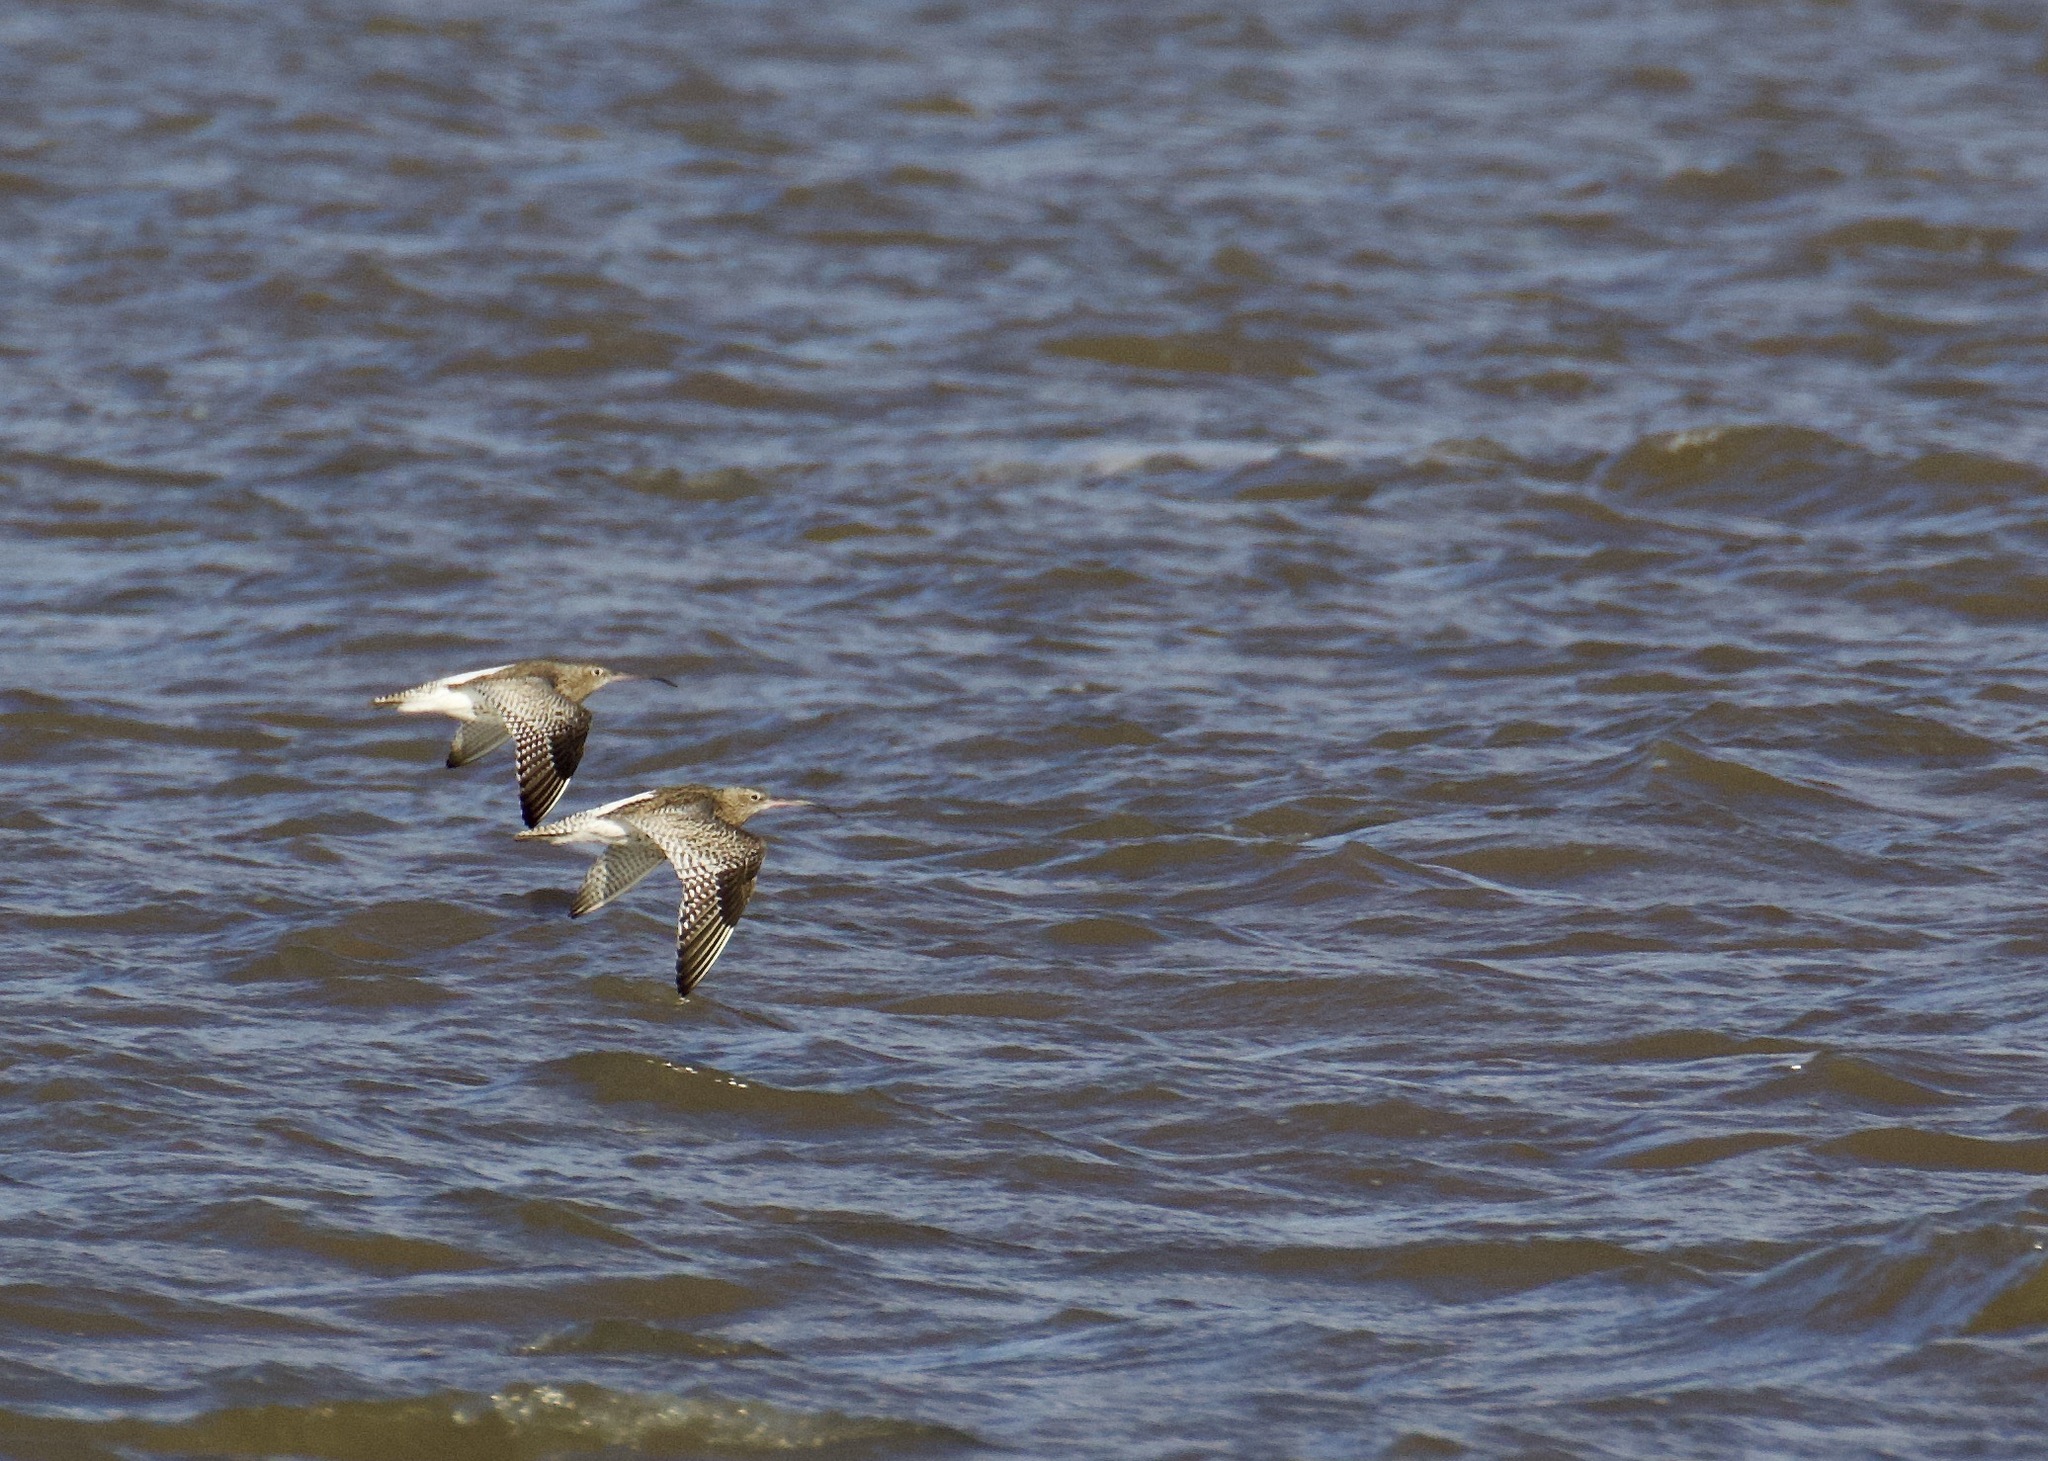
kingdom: Animalia
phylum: Chordata
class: Aves
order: Charadriiformes
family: Scolopacidae
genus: Numenius
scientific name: Numenius arquata
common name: Eurasian curlew
